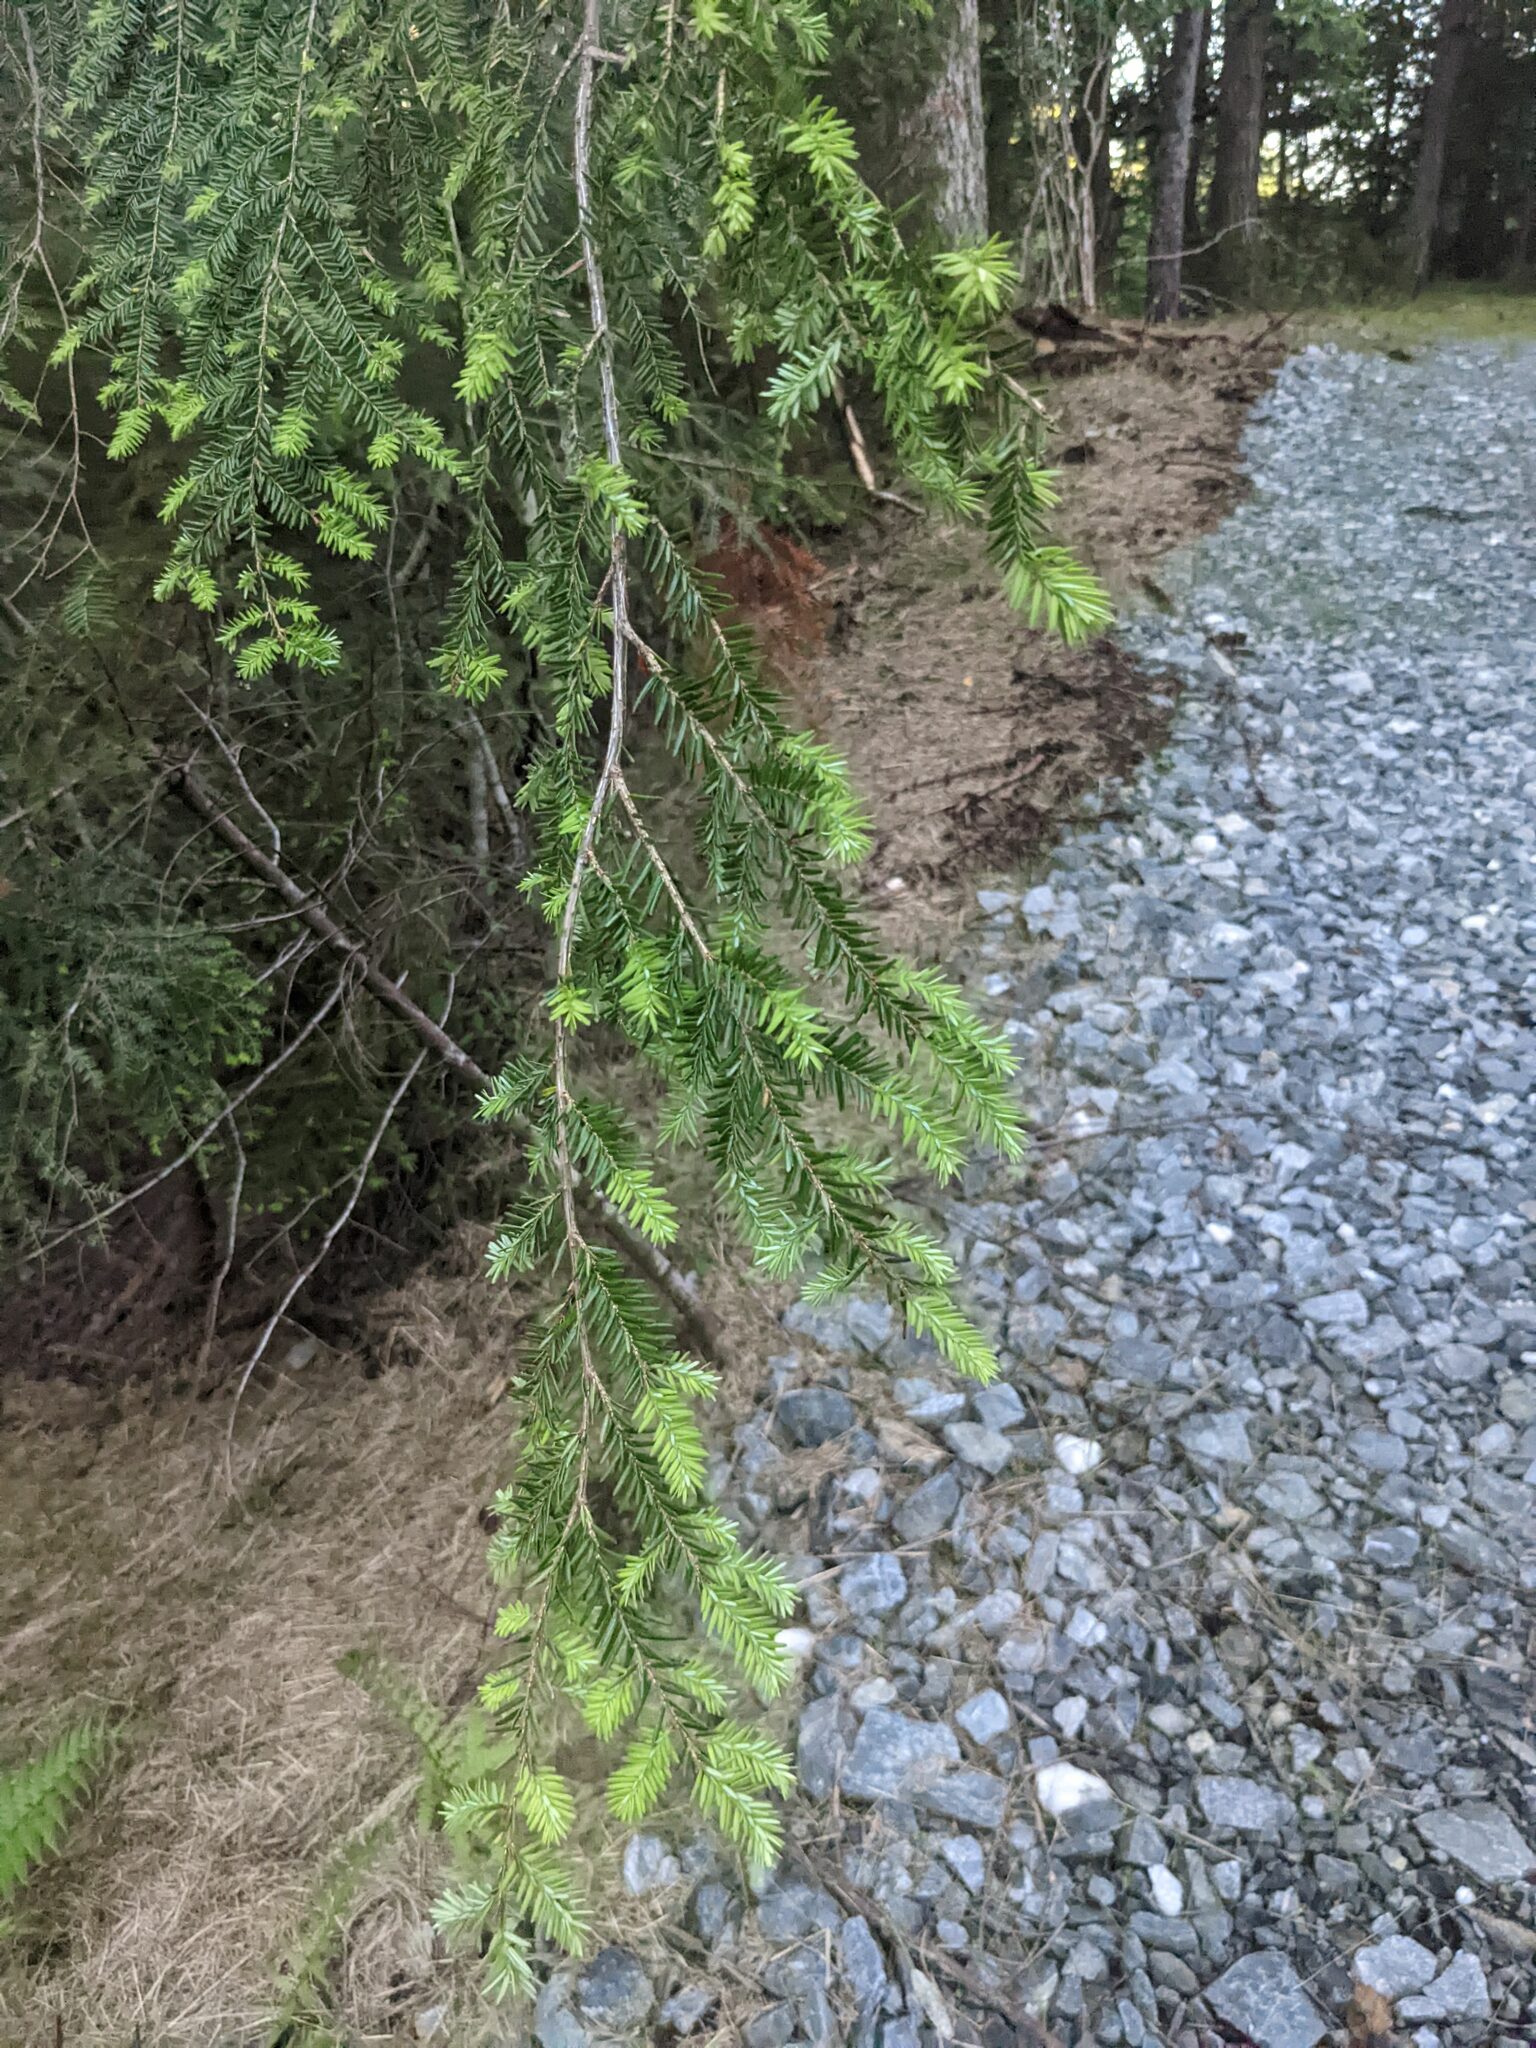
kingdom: Plantae
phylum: Tracheophyta
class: Pinopsida
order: Pinales
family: Pinaceae
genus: Tsuga
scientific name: Tsuga canadensis
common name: Eastern hemlock
